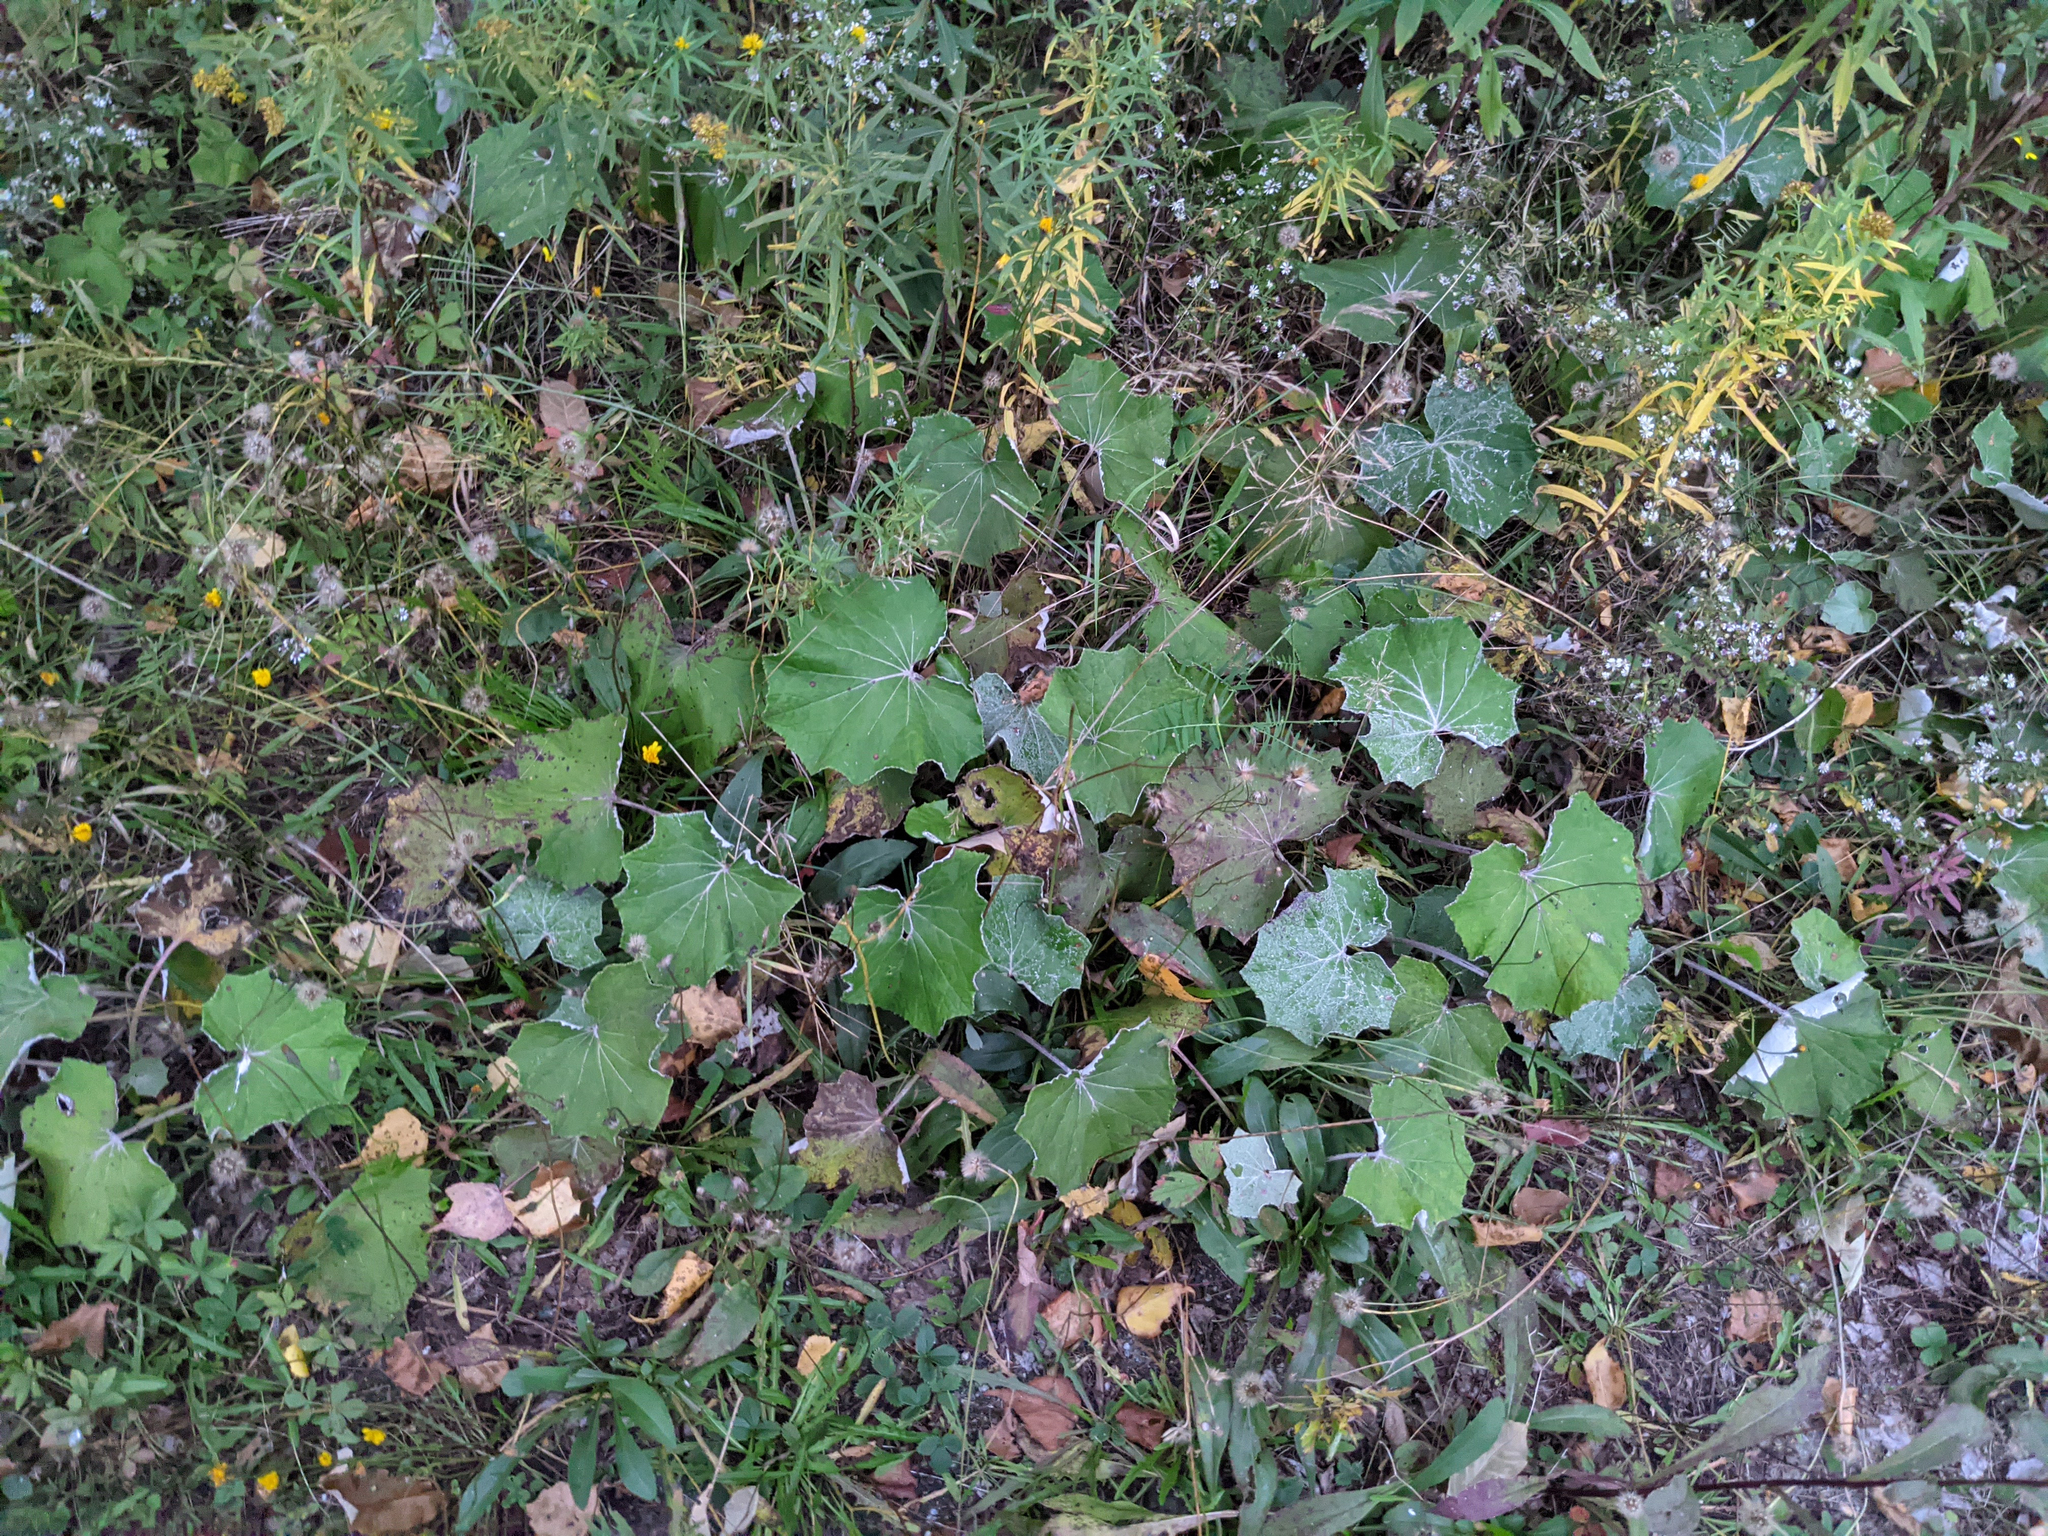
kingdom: Plantae
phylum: Tracheophyta
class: Magnoliopsida
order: Asterales
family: Asteraceae
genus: Tussilago
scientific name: Tussilago farfara
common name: Coltsfoot
